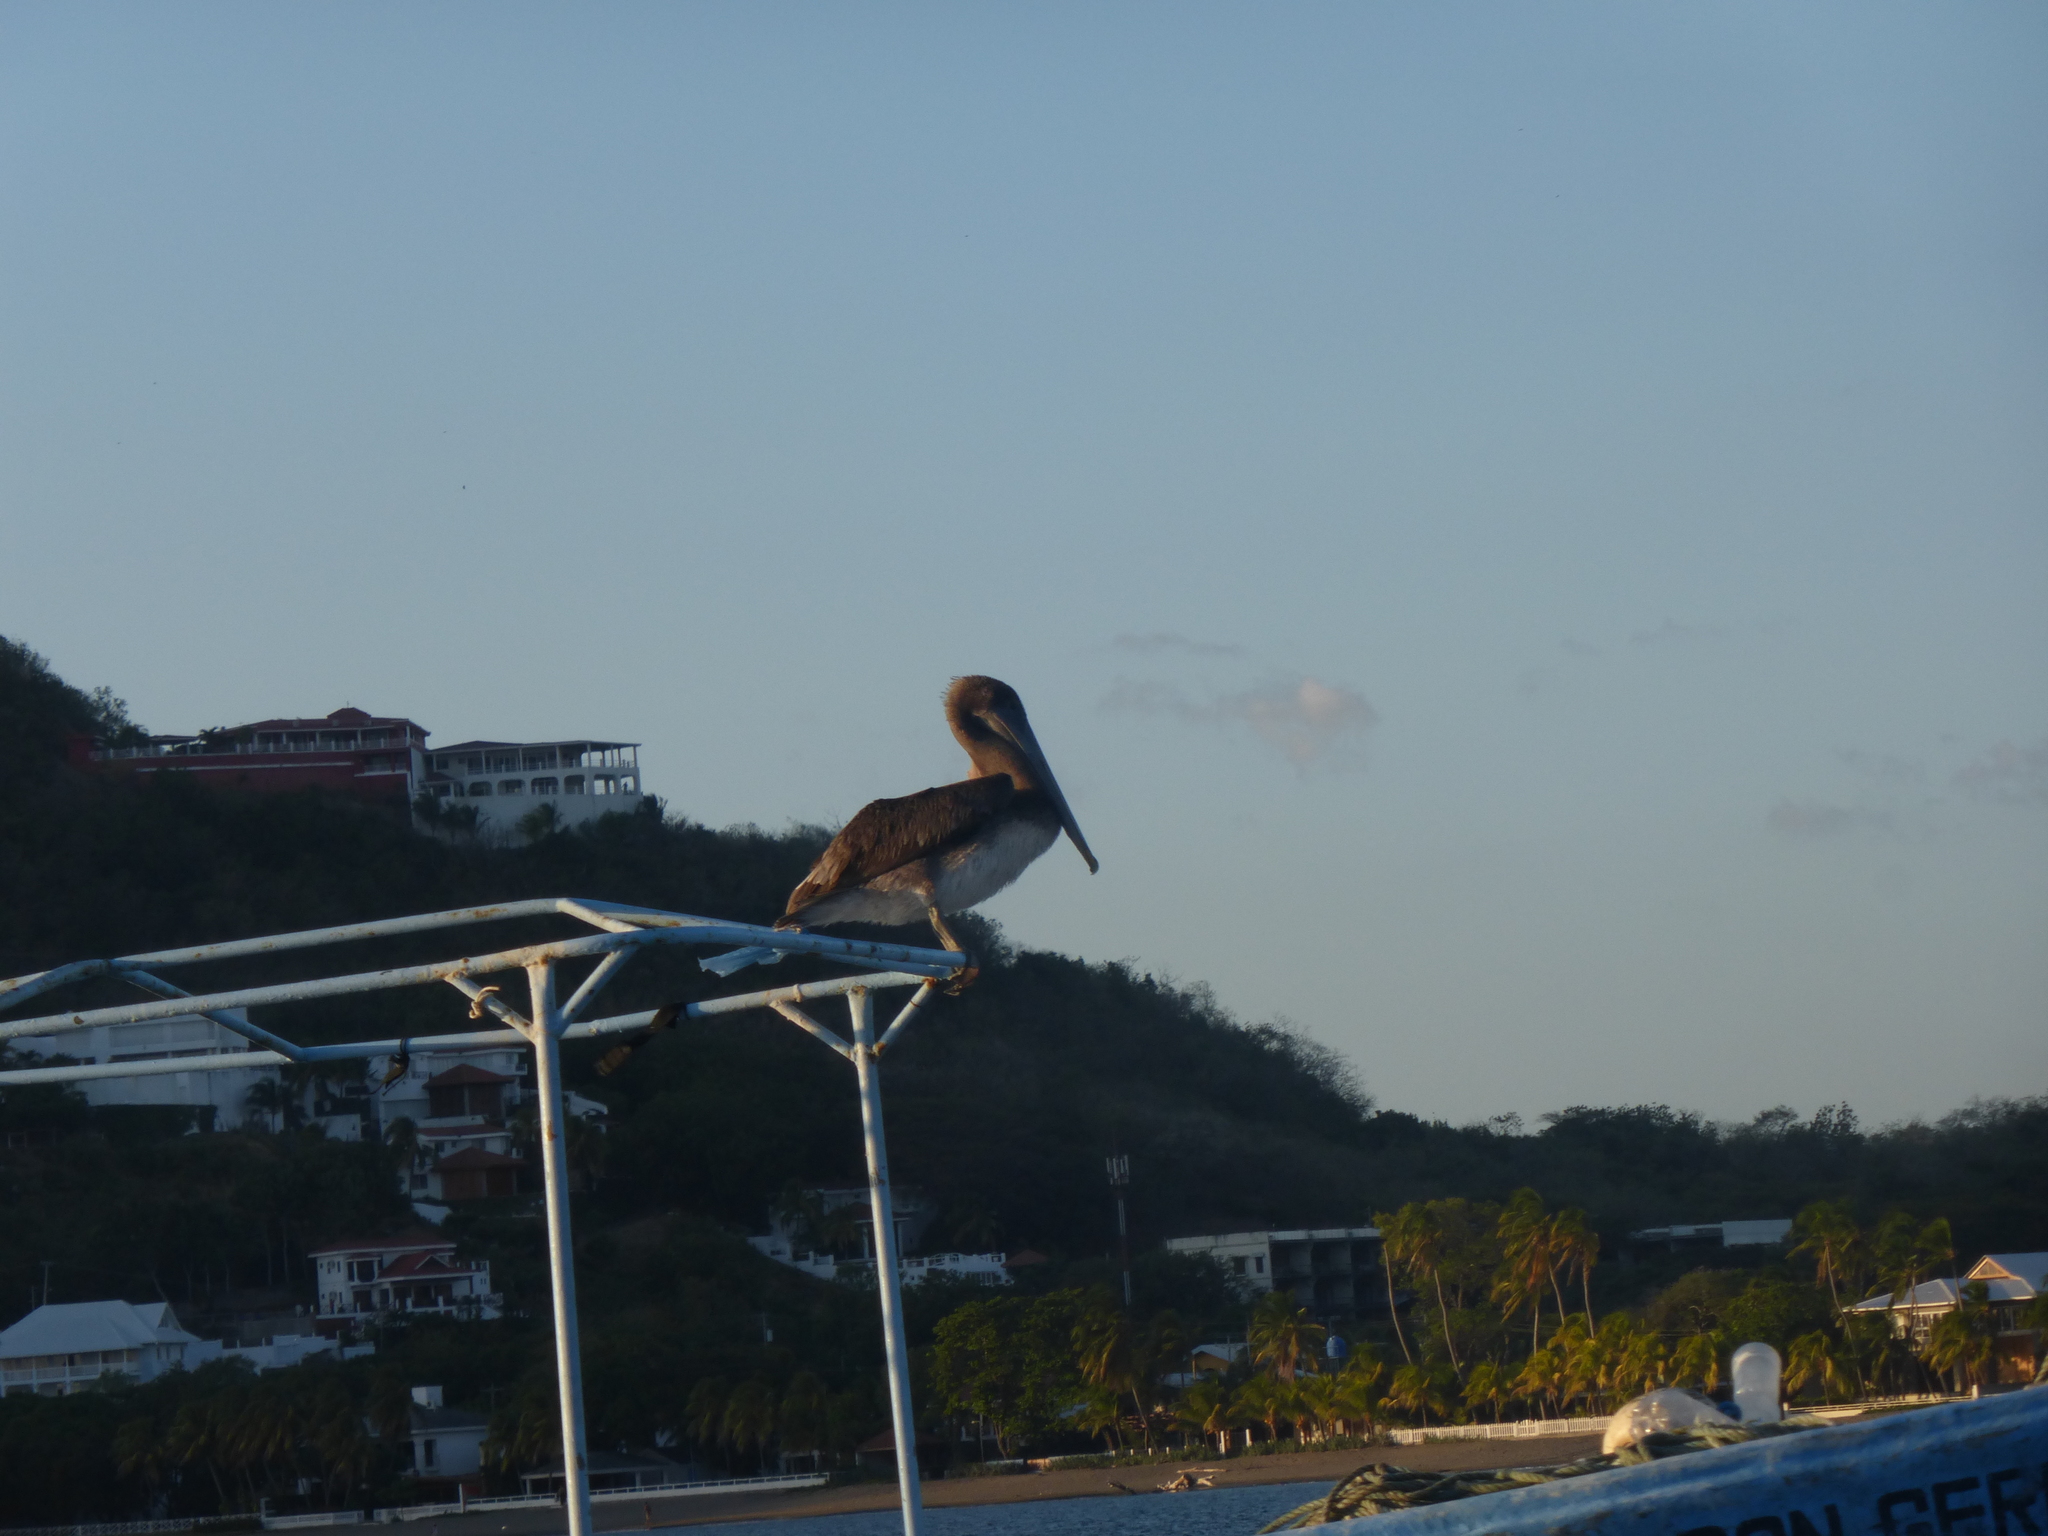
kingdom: Animalia
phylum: Chordata
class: Aves
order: Pelecaniformes
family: Pelecanidae
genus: Pelecanus
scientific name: Pelecanus occidentalis
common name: Brown pelican
